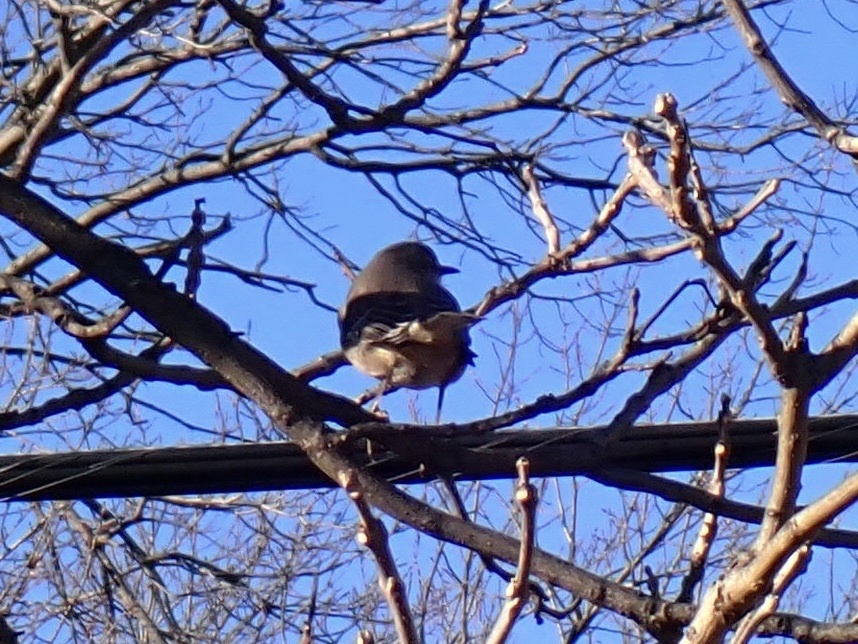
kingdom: Animalia
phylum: Chordata
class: Aves
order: Passeriformes
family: Mimidae
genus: Mimus
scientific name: Mimus polyglottos
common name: Northern mockingbird
